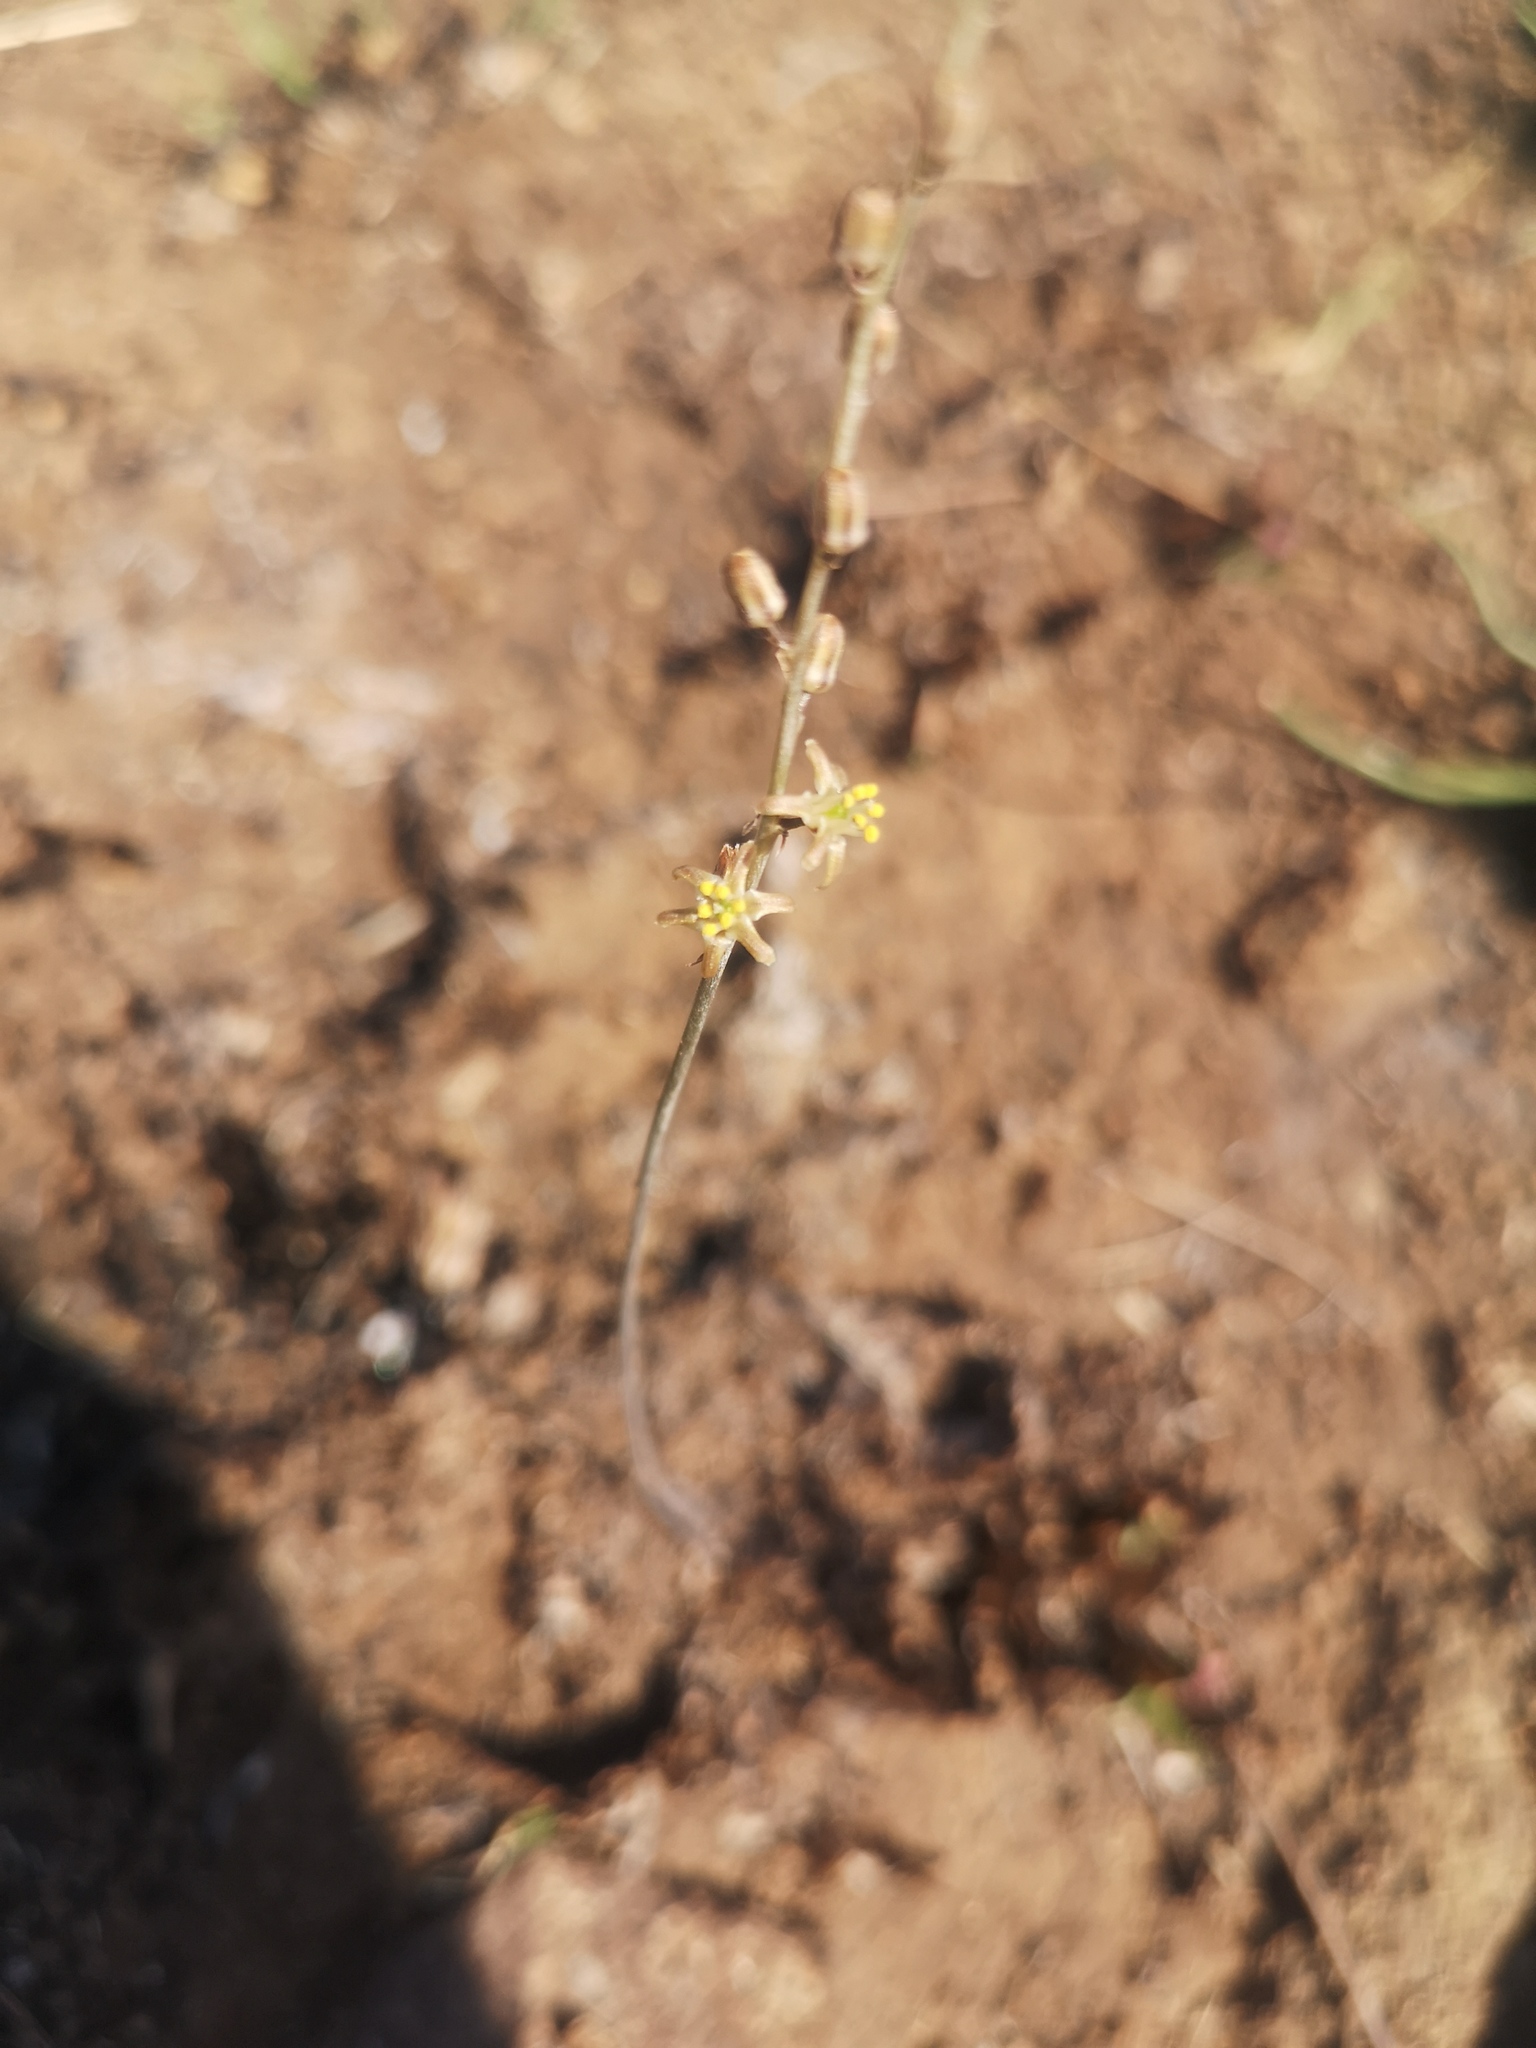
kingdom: Plantae
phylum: Tracheophyta
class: Liliopsida
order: Asparagales
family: Asparagaceae
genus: Drimia
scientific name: Drimia multisetosa
